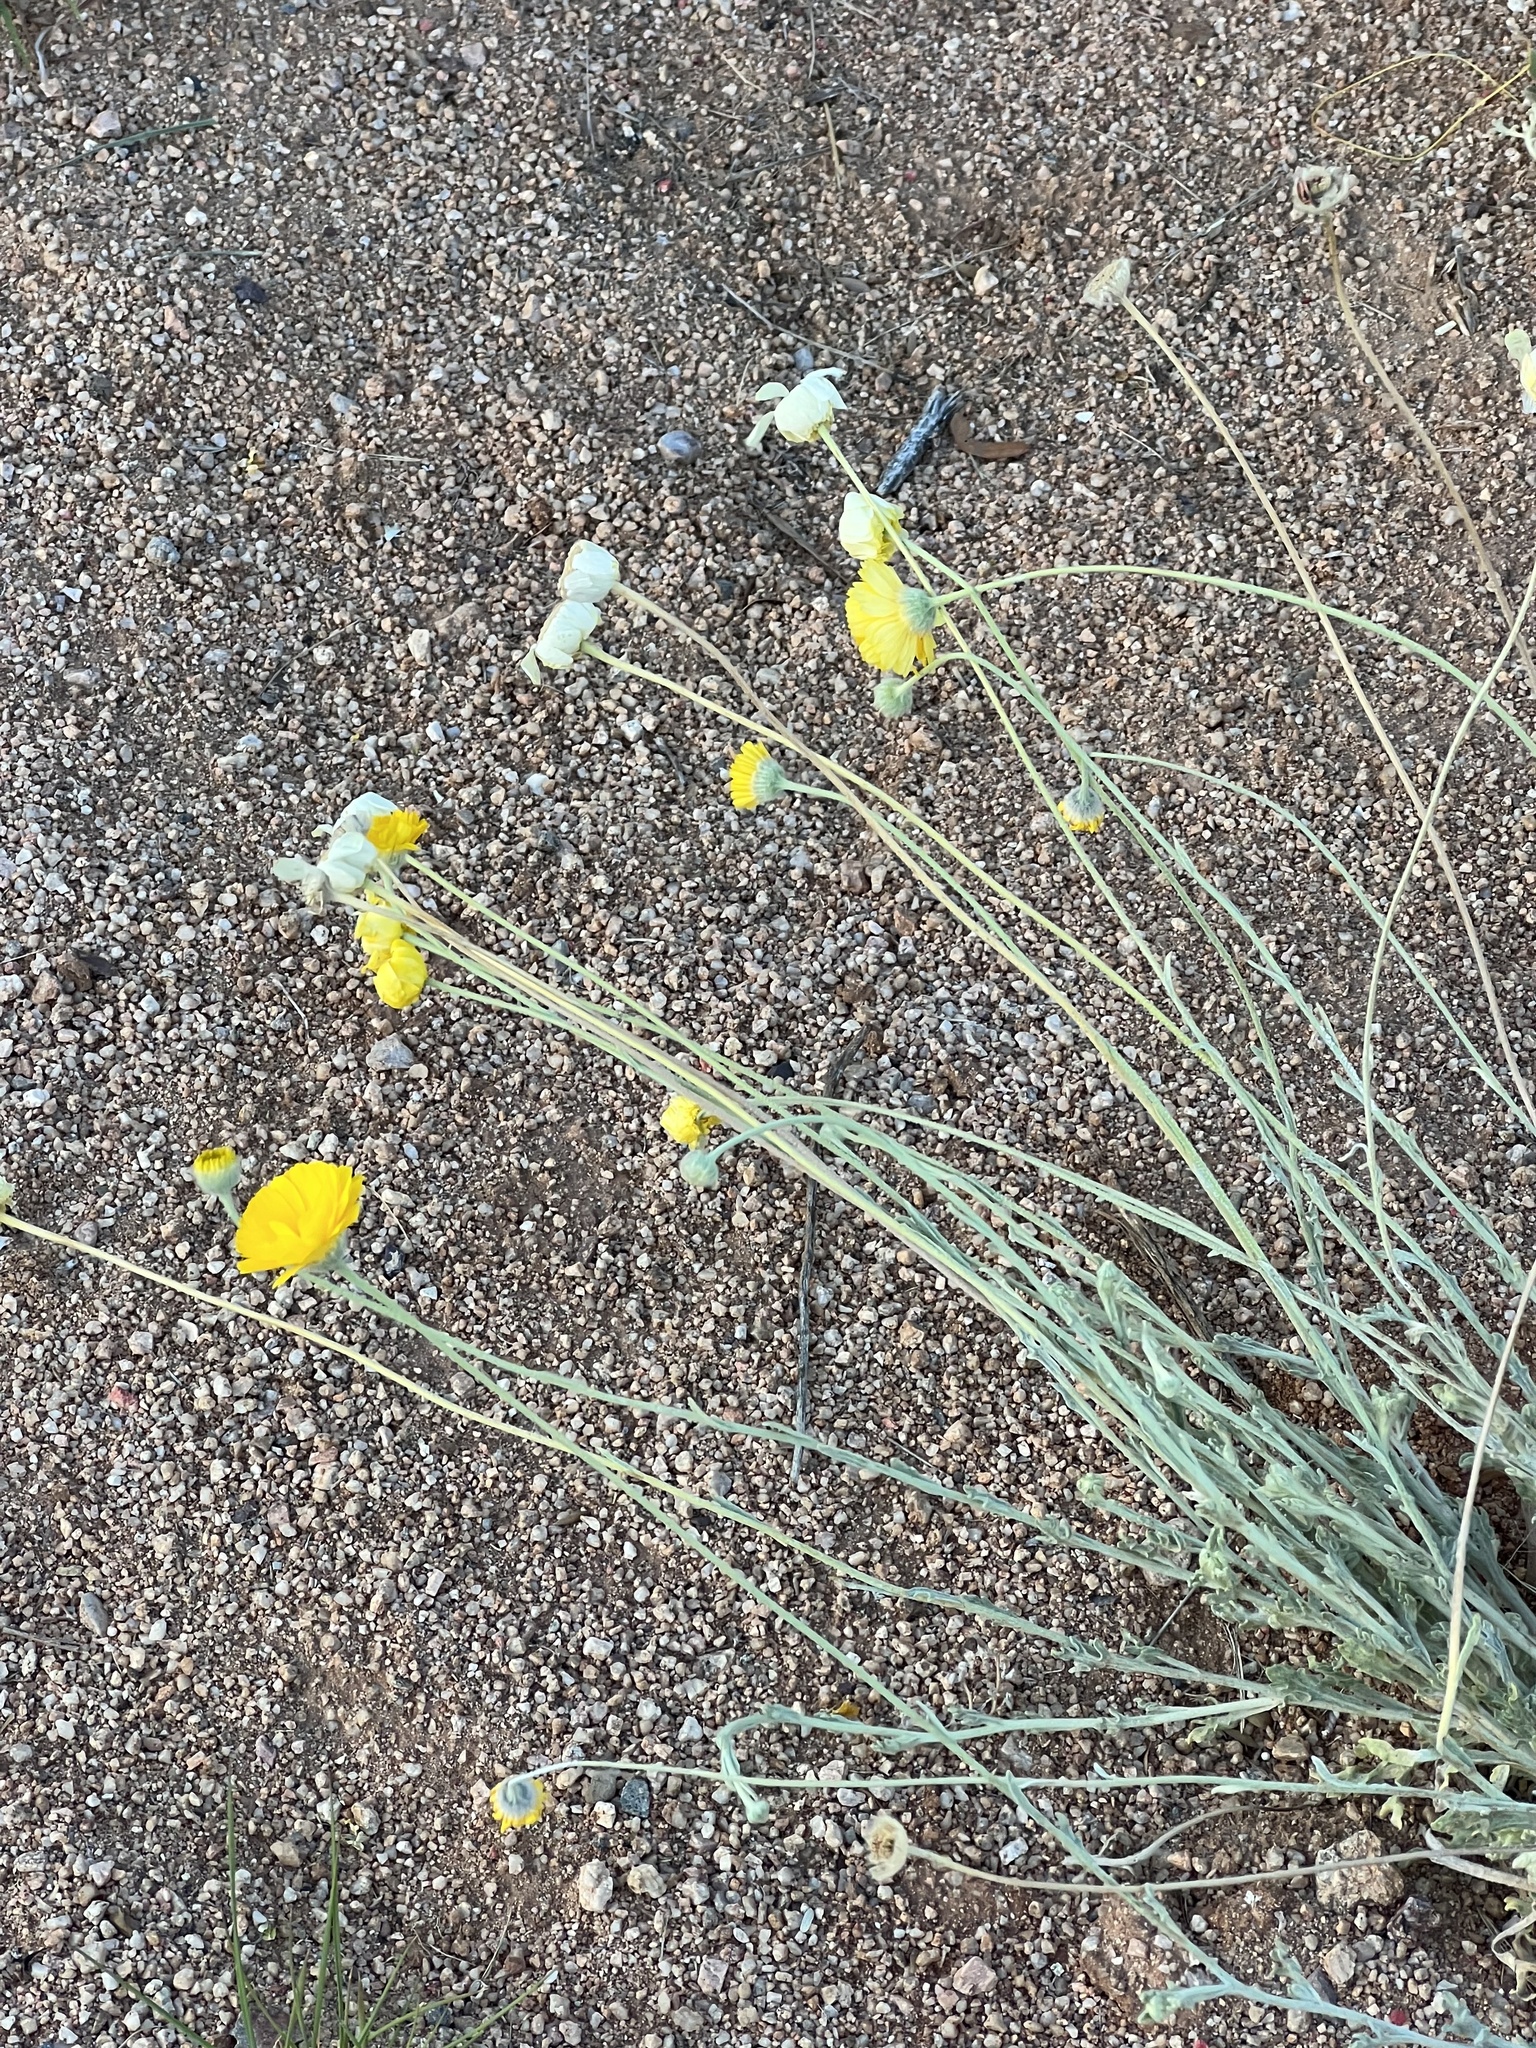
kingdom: Plantae
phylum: Tracheophyta
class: Magnoliopsida
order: Asterales
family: Asteraceae
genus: Baileya
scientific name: Baileya multiradiata
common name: Desert-marigold
